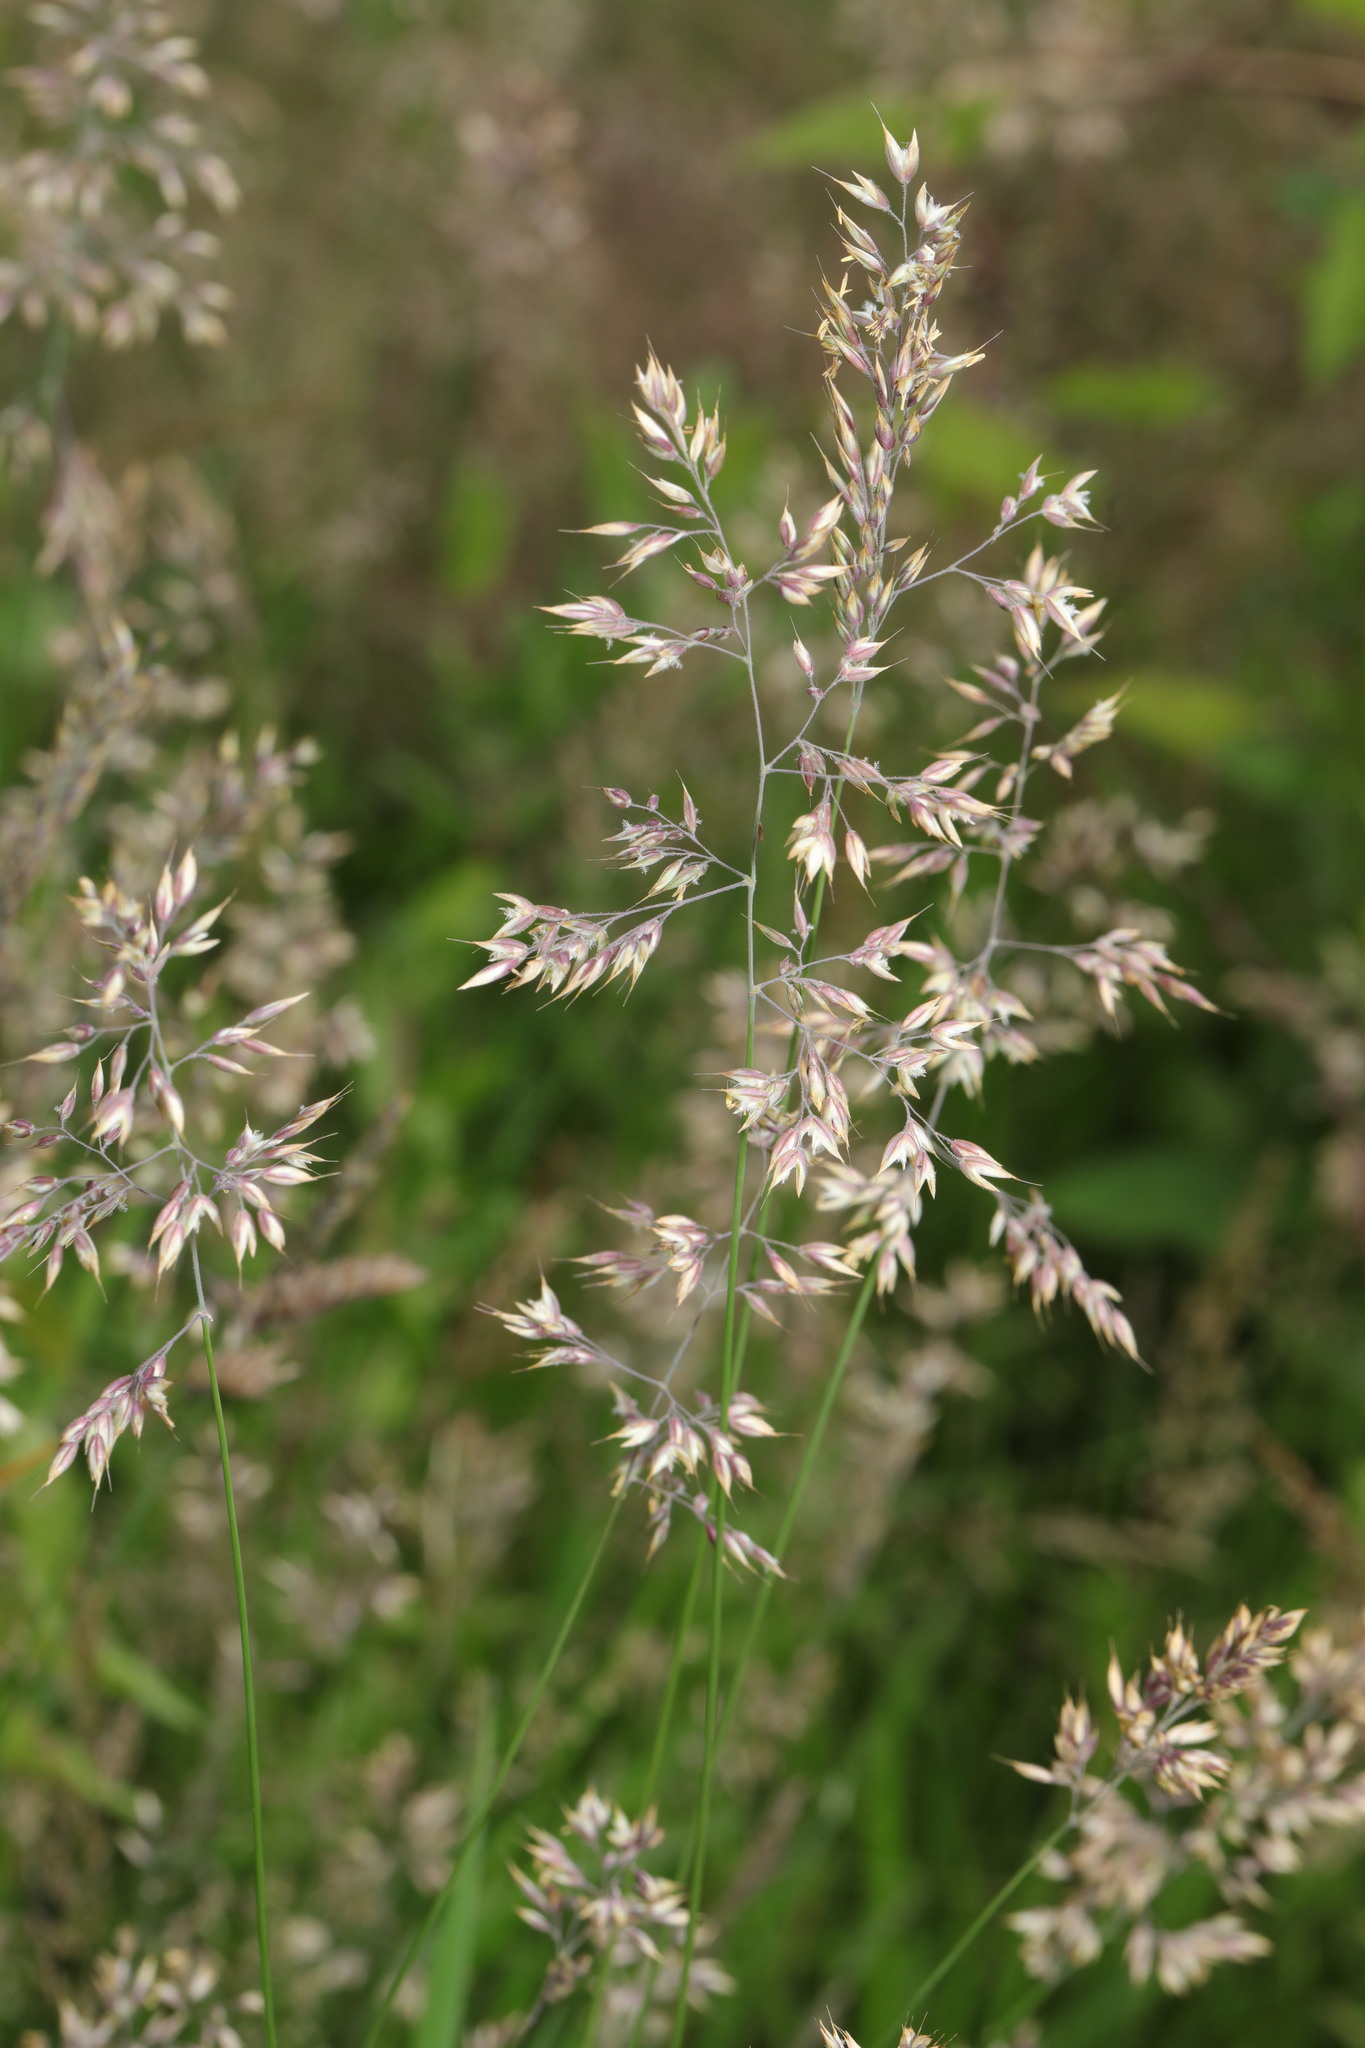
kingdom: Plantae
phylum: Tracheophyta
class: Liliopsida
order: Poales
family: Poaceae
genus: Holcus
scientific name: Holcus lanatus
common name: Yorkshire-fog
